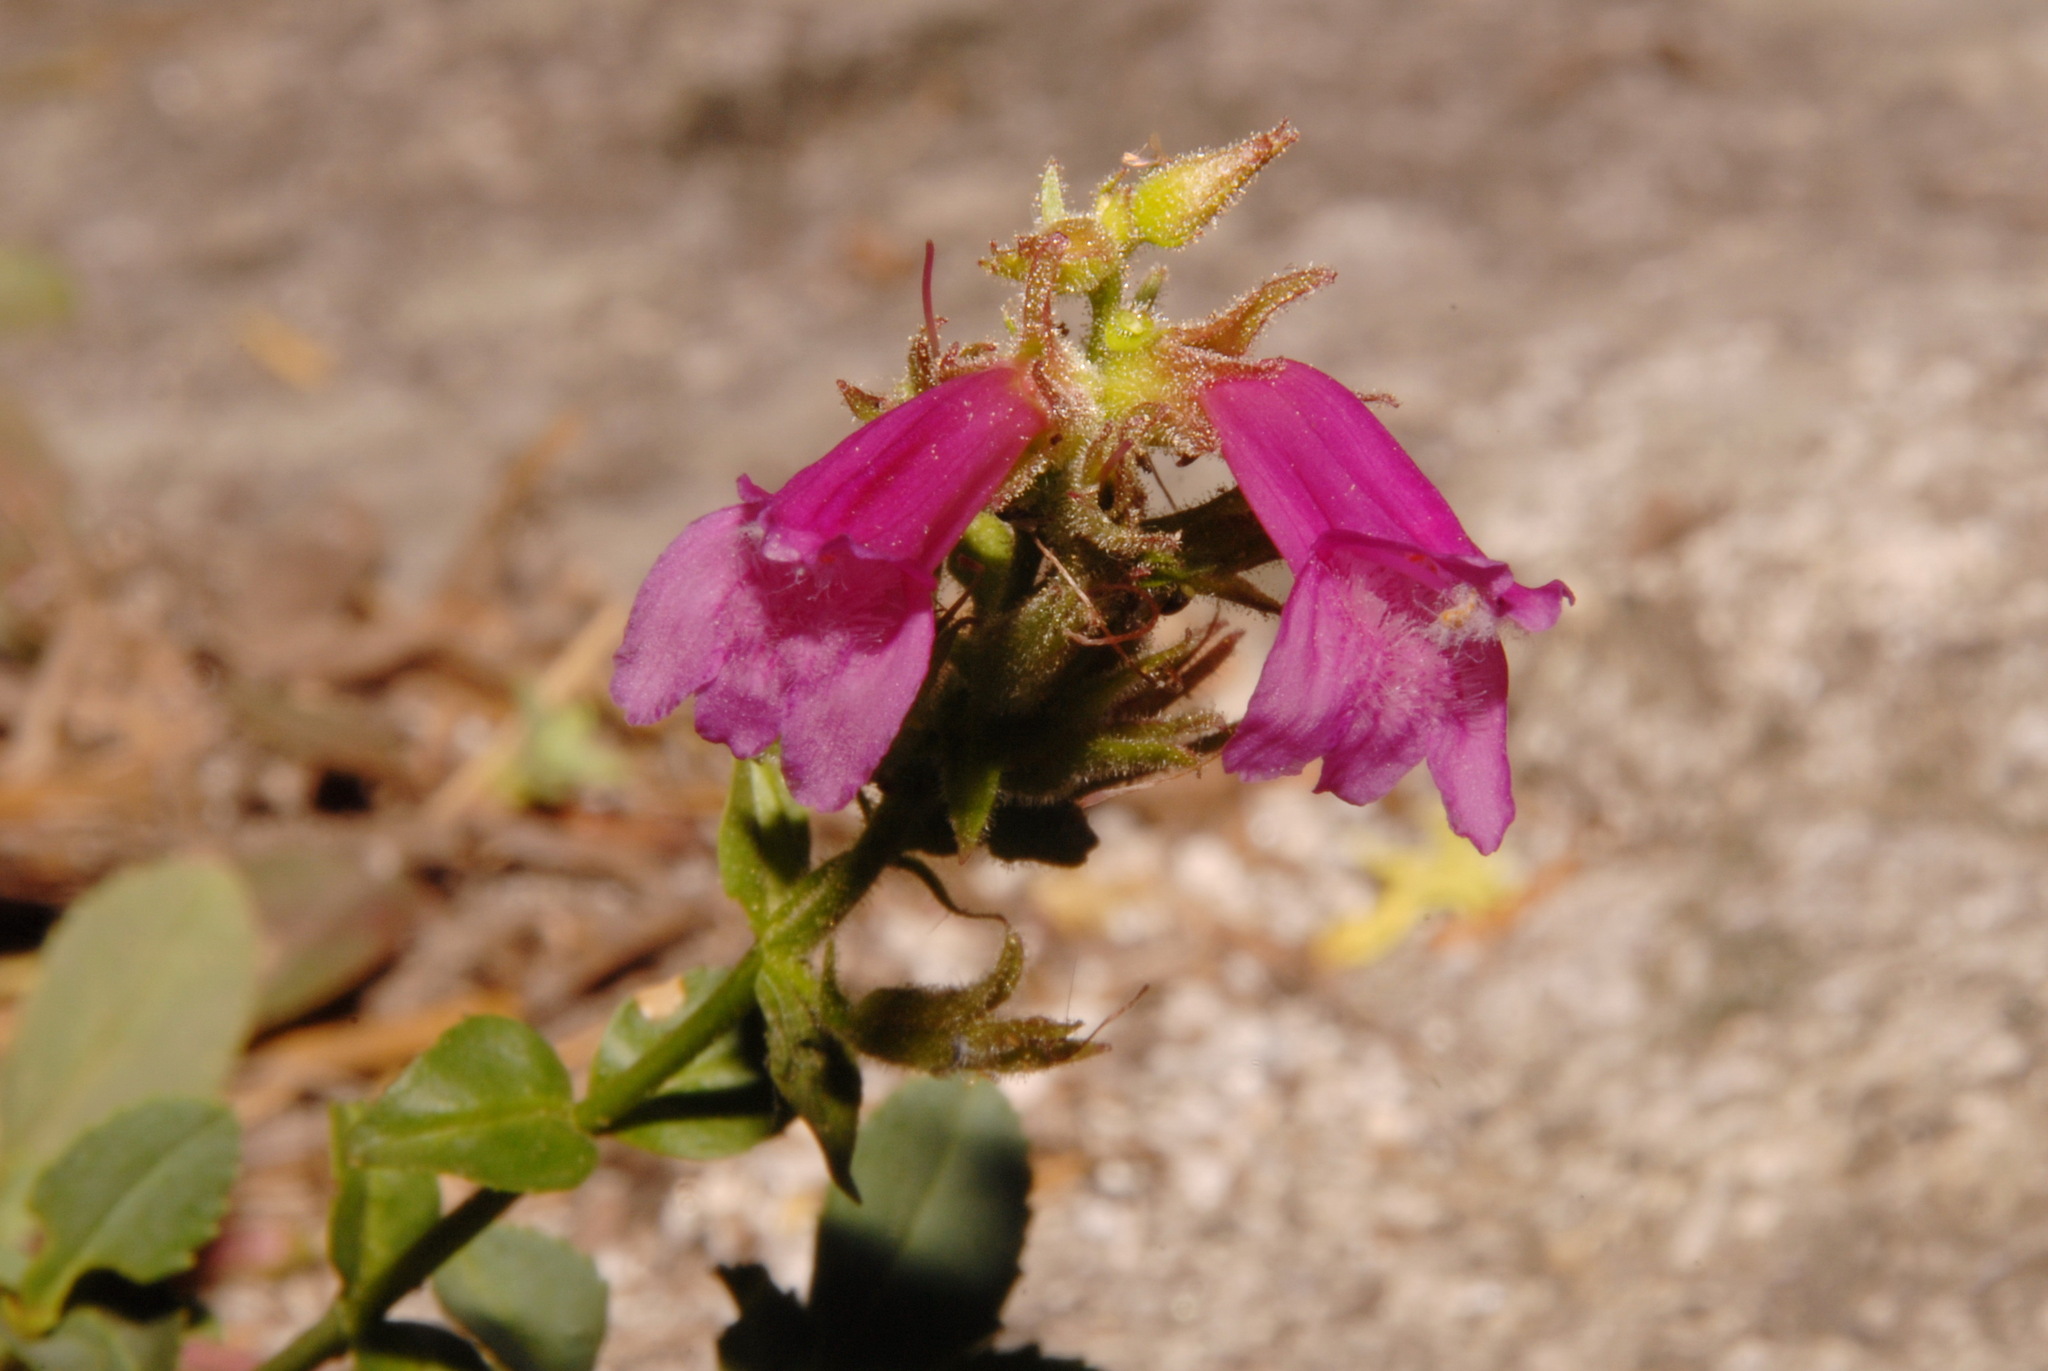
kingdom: Plantae
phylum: Tracheophyta
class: Magnoliopsida
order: Lamiales
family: Plantaginaceae
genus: Penstemon
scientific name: Penstemon newberryi
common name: Mountain-pride
